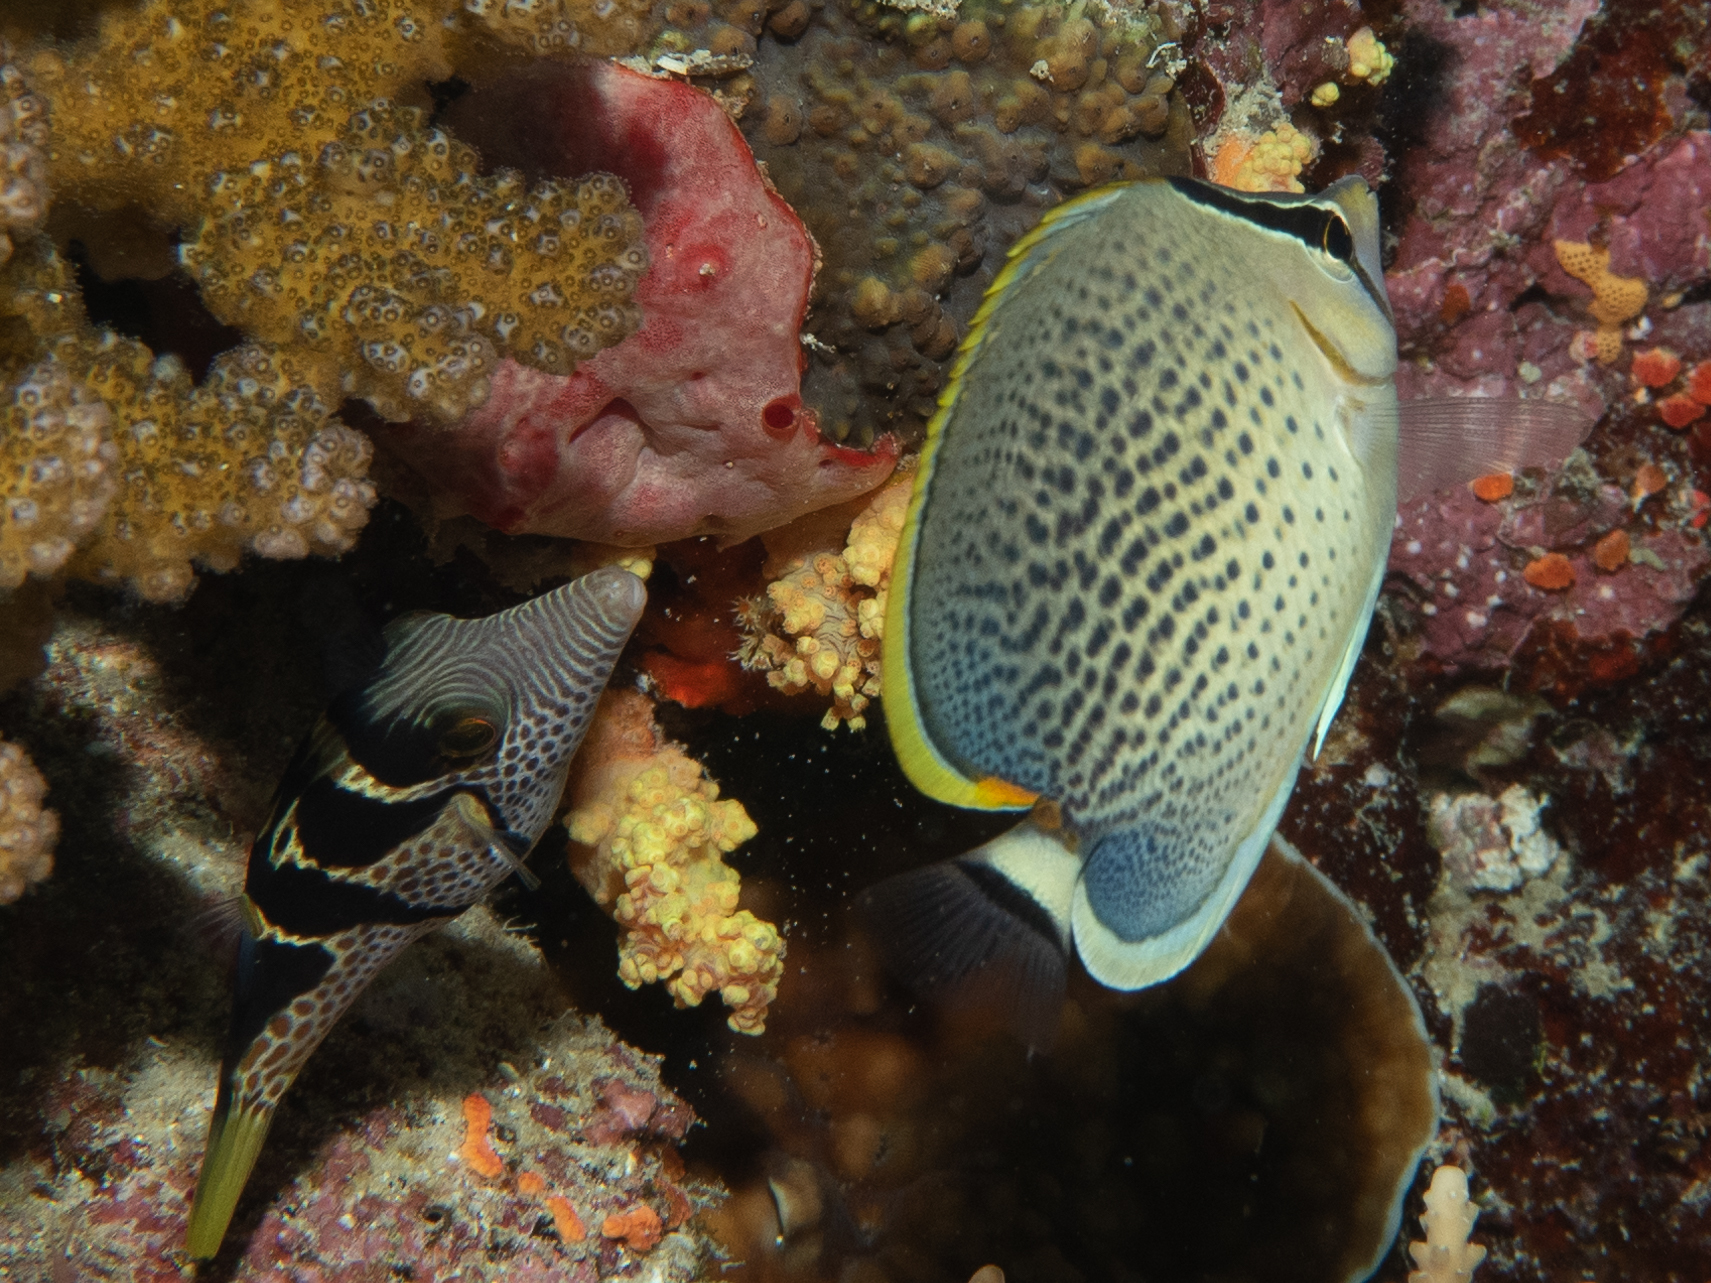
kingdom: Animalia
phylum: Chordata
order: Perciformes
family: Chaetodontidae
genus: Chaetodon
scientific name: Chaetodon guttatissimus
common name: Spotted butterflyfish
